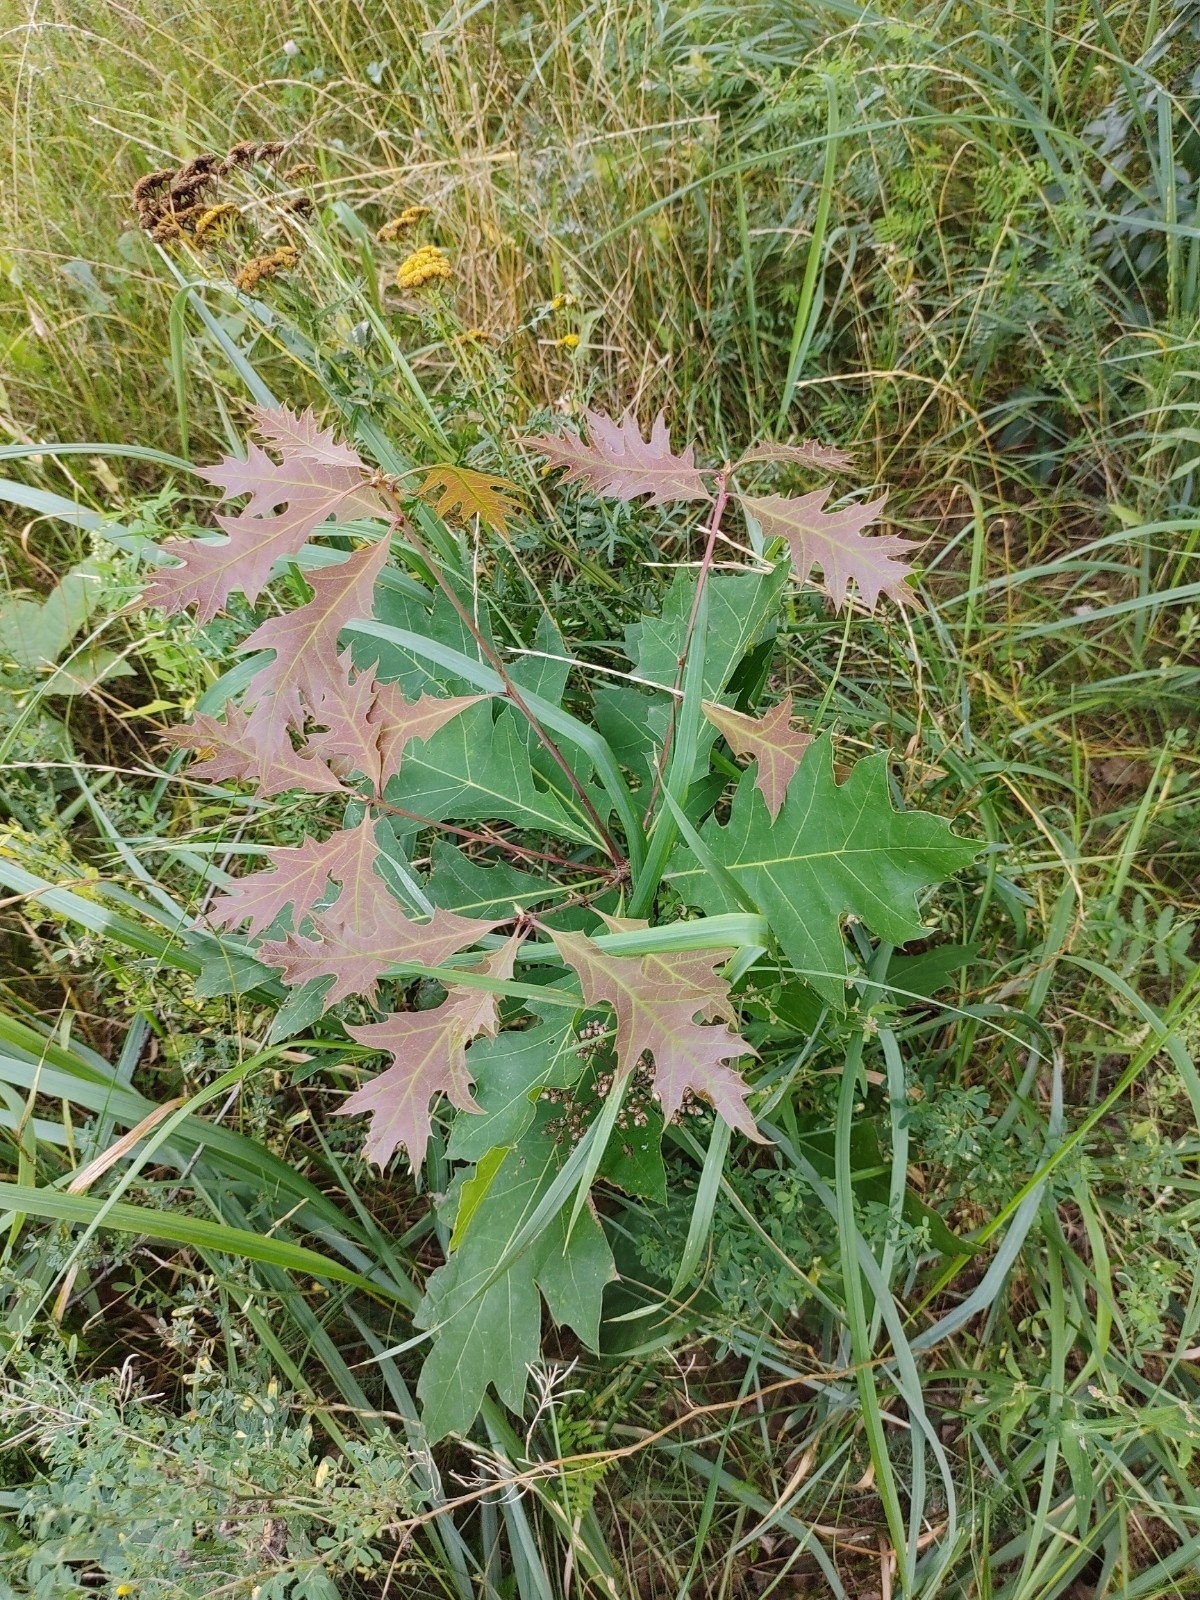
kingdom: Plantae
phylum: Tracheophyta
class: Magnoliopsida
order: Fagales
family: Fagaceae
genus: Quercus
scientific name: Quercus rubra
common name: Red oak
